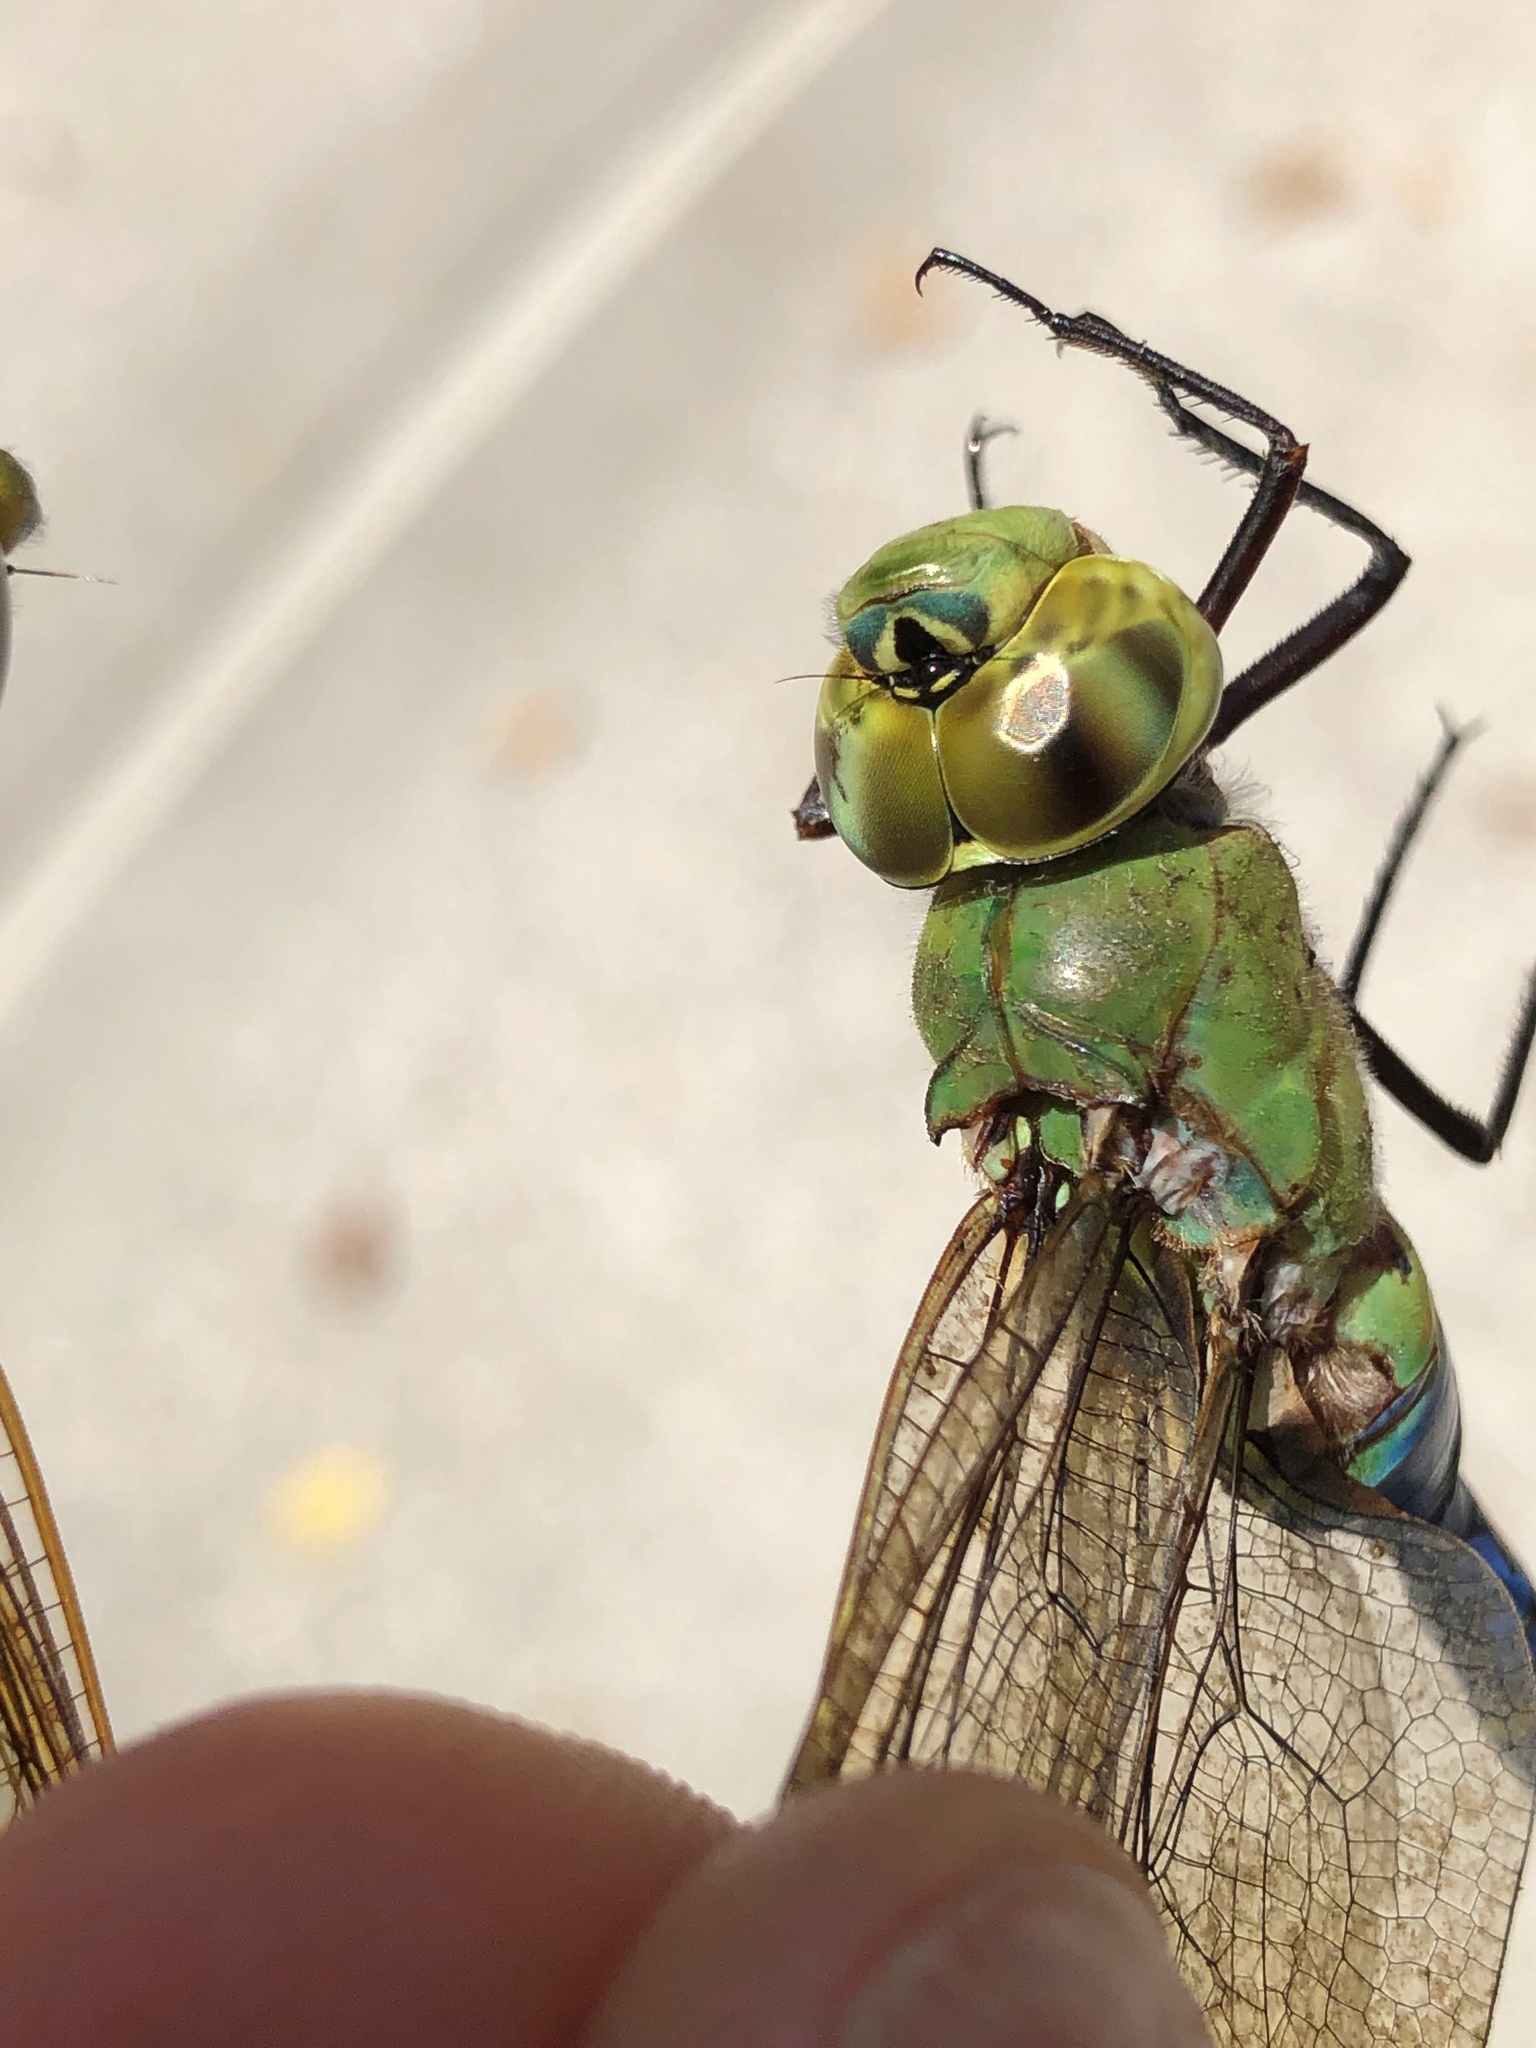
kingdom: Animalia
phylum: Arthropoda
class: Insecta
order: Odonata
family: Aeshnidae
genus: Anax
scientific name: Anax junius
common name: Common green darner
